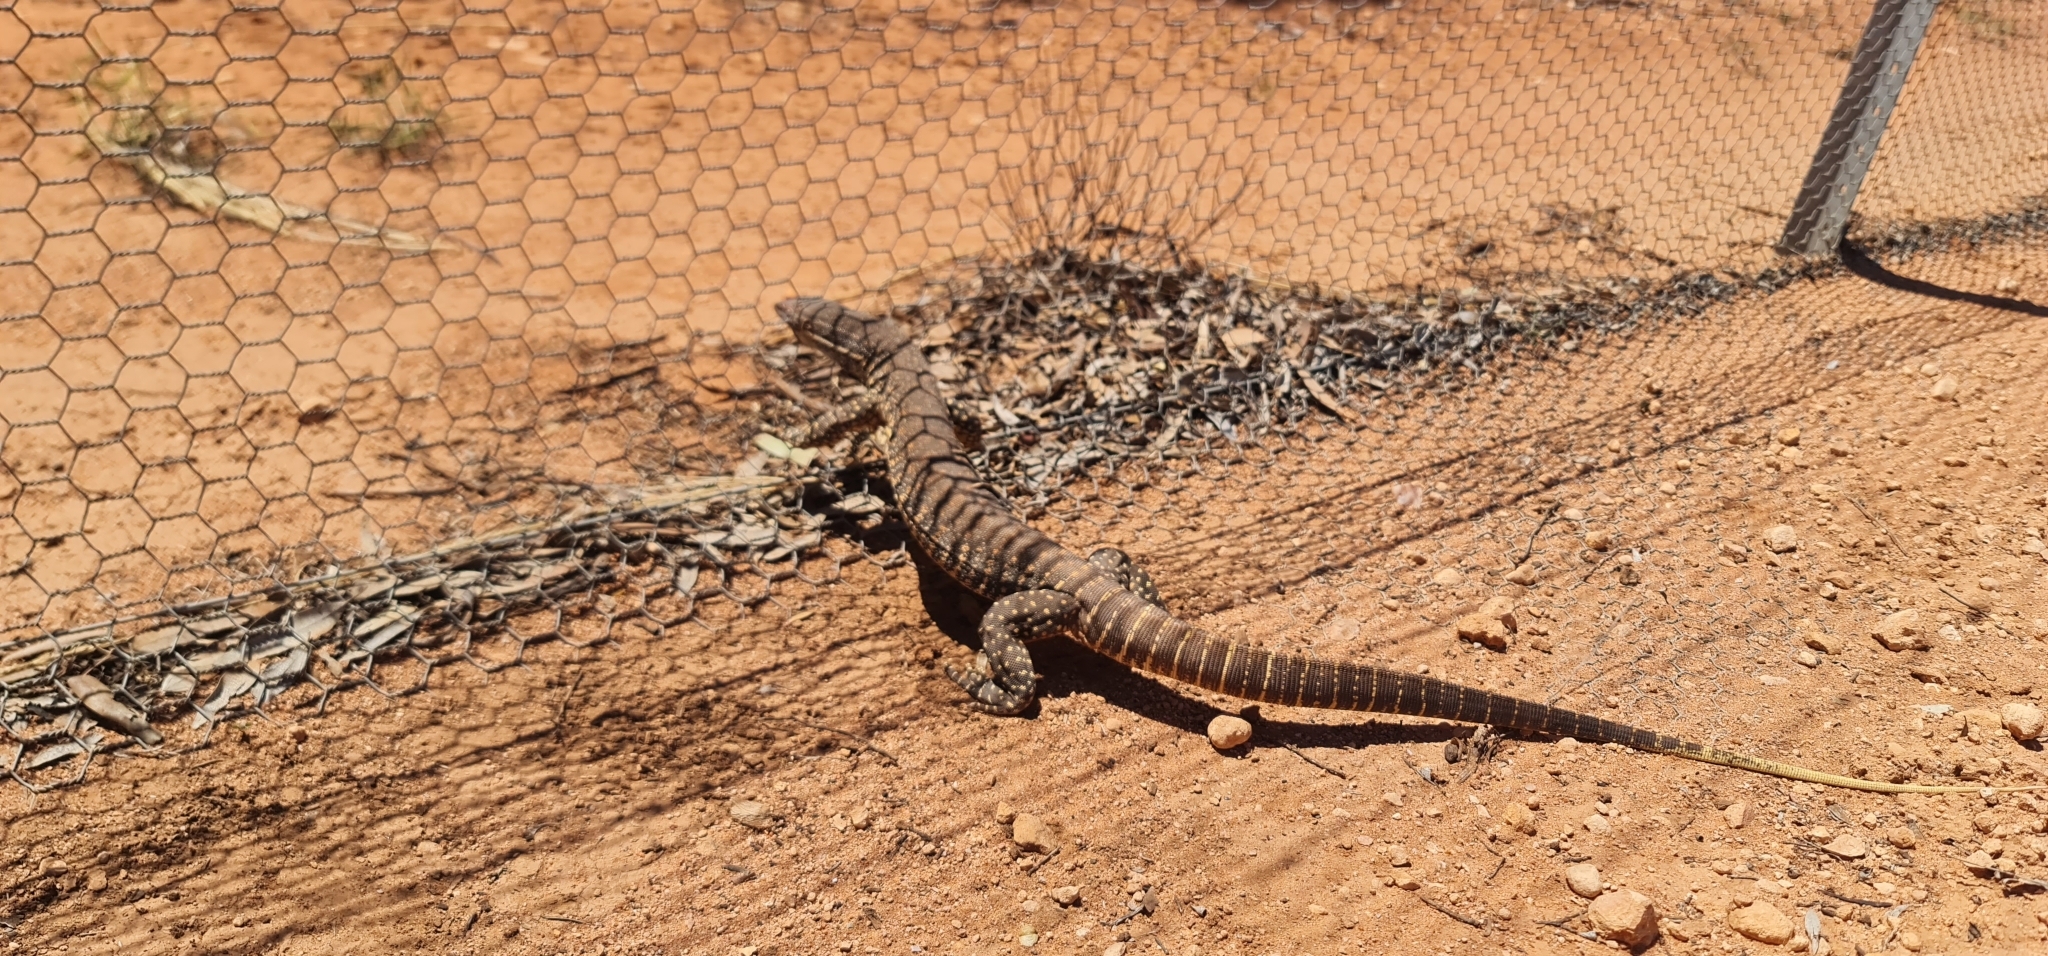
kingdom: Animalia
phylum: Chordata
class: Squamata
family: Varanidae
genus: Varanus
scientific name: Varanus gouldii
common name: Gould's goanna
